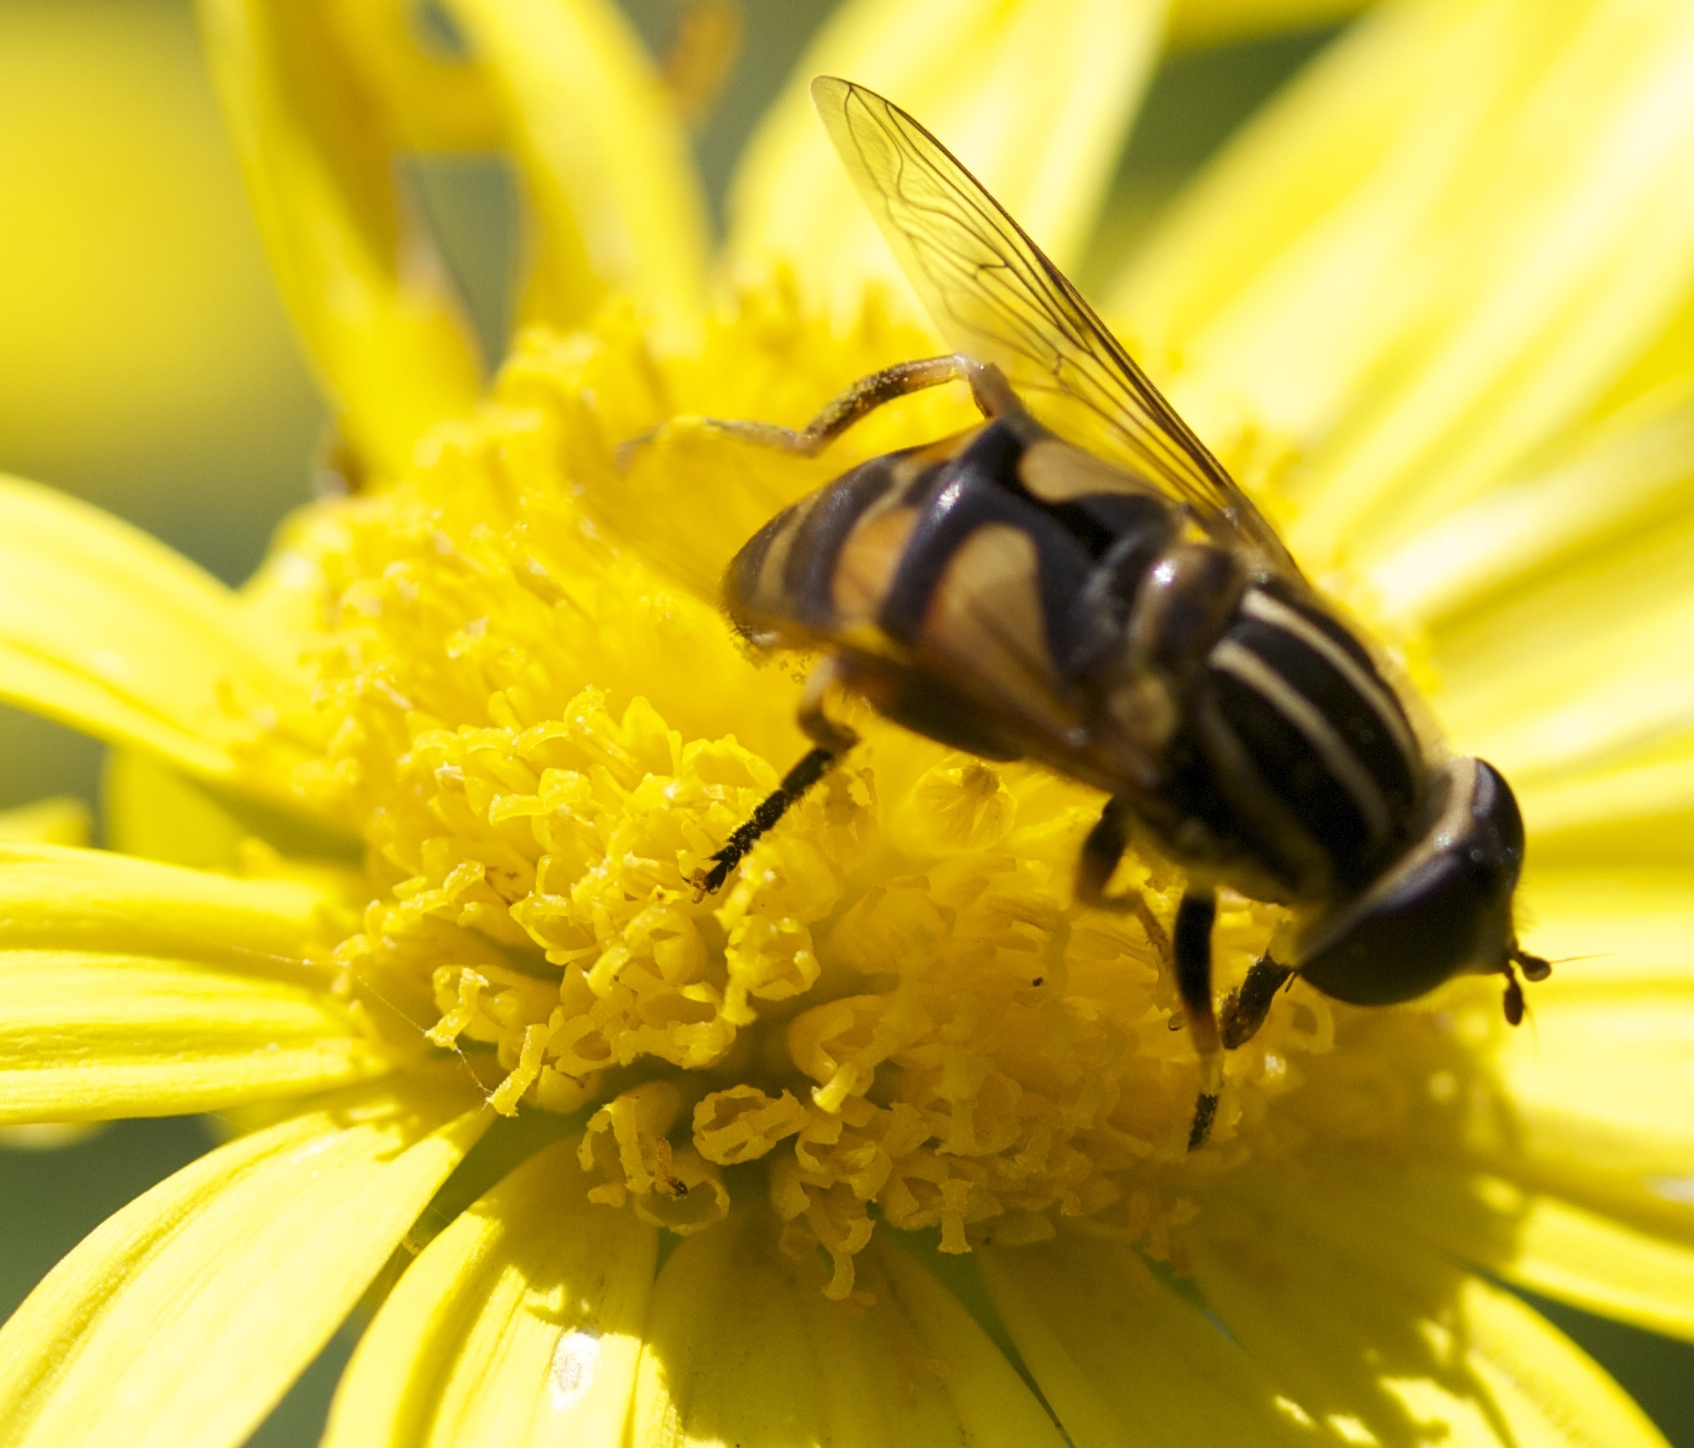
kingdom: Animalia
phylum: Arthropoda
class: Insecta
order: Diptera
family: Syrphidae
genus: Helophilus
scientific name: Helophilus fasciatus
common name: Narrow-headed marsh fly
